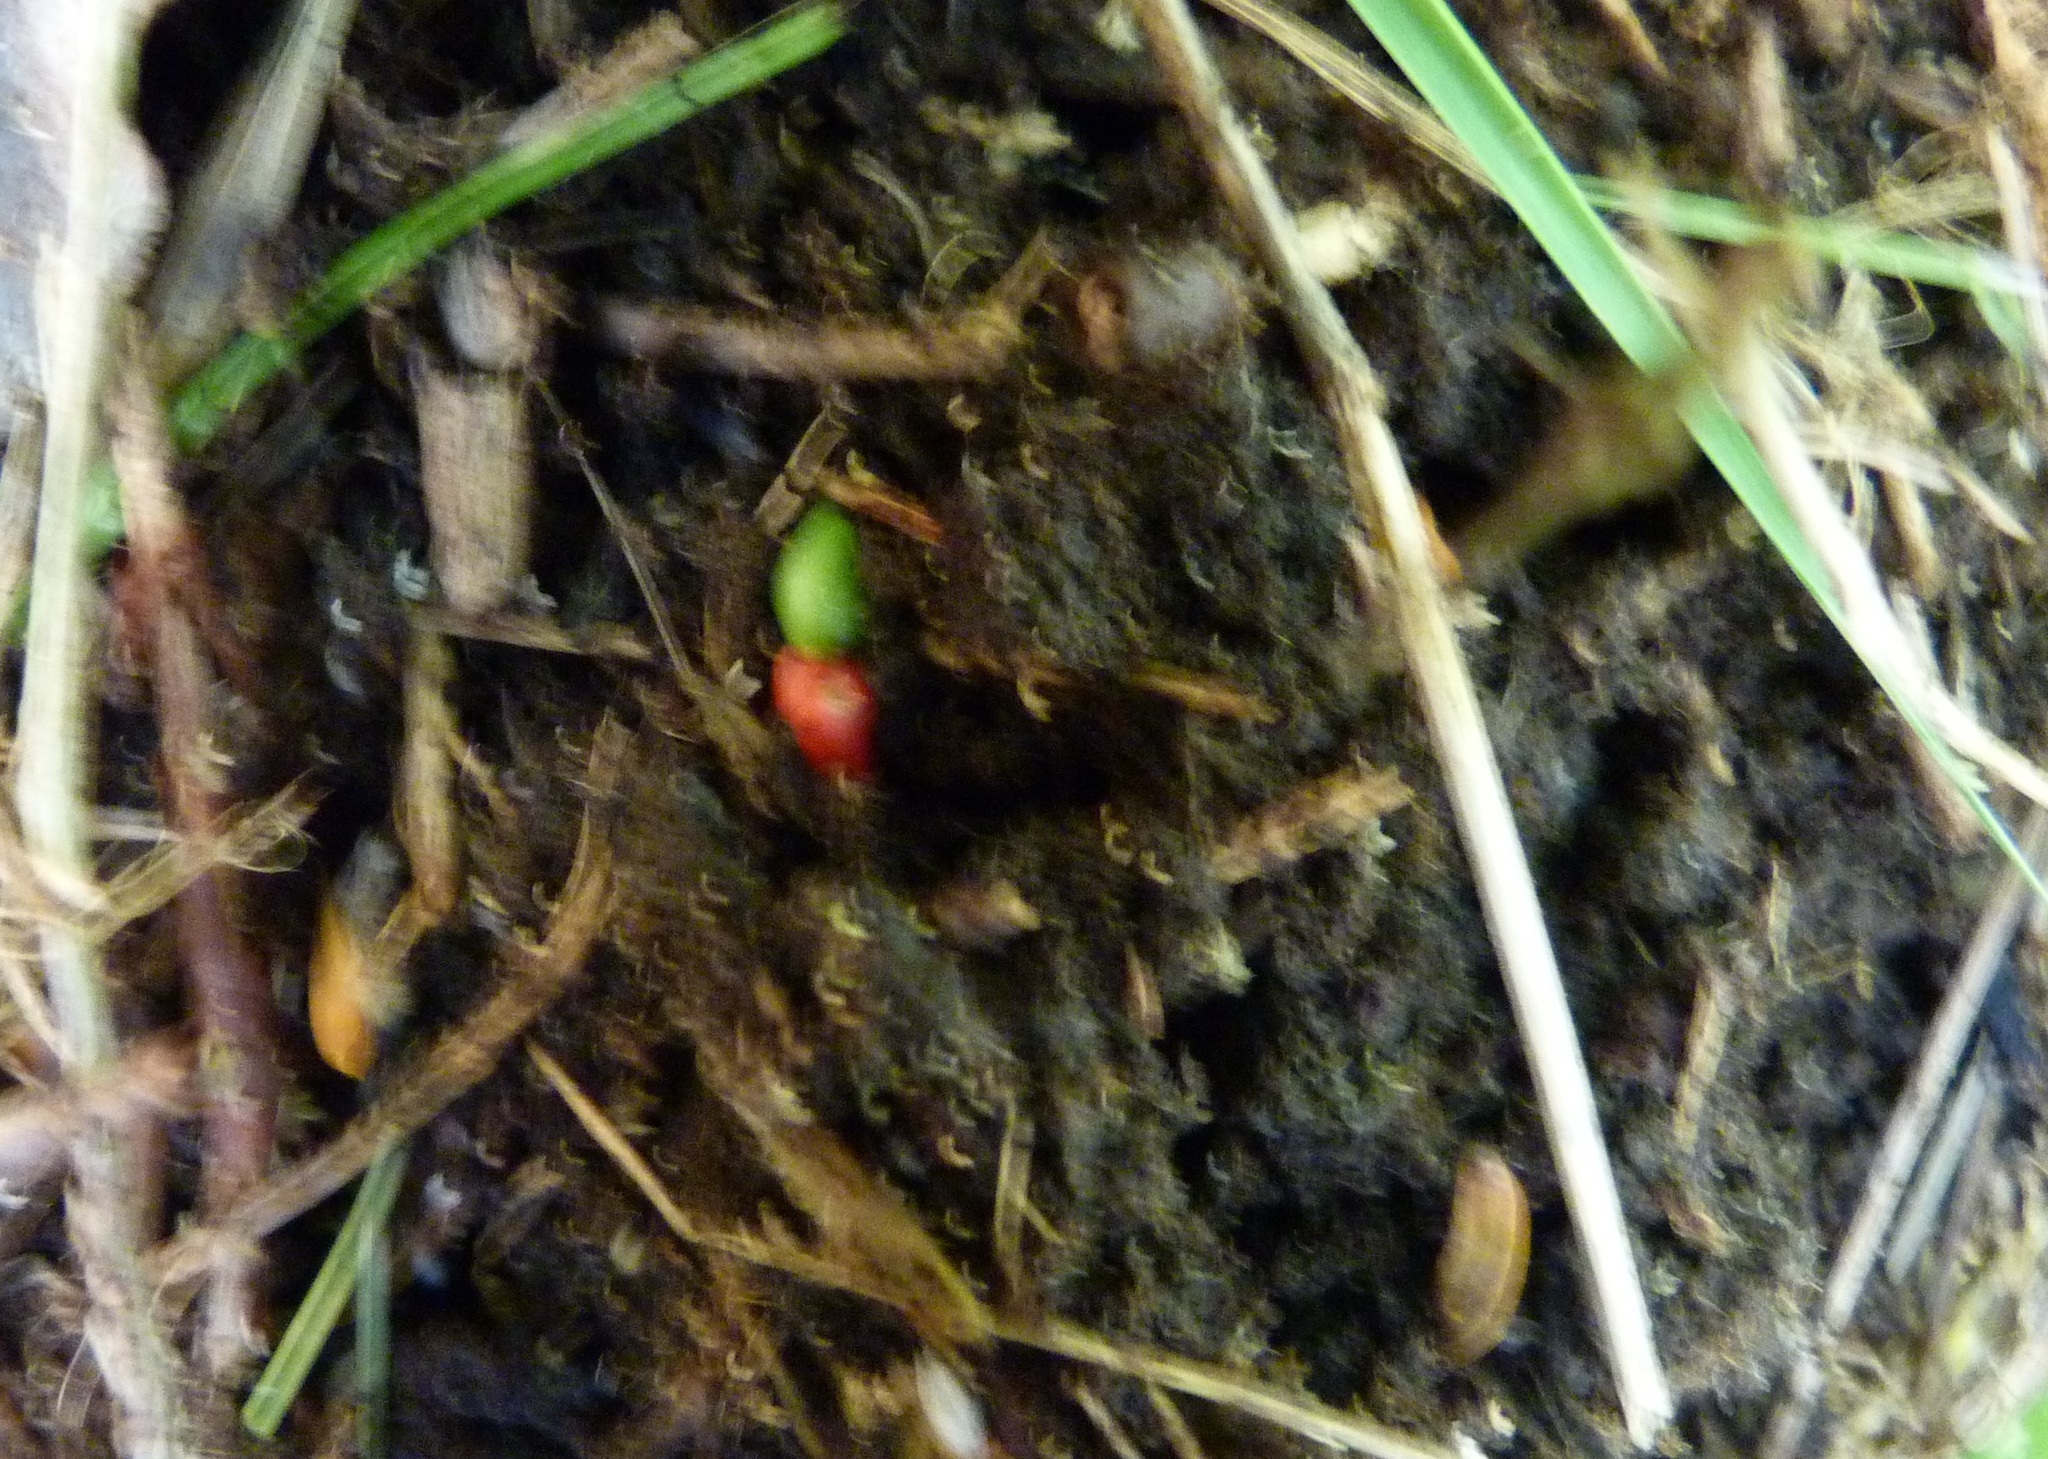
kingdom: Plantae
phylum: Tracheophyta
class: Pinopsida
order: Pinales
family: Podocarpaceae
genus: Podocarpus
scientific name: Podocarpus totara
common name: Totara
